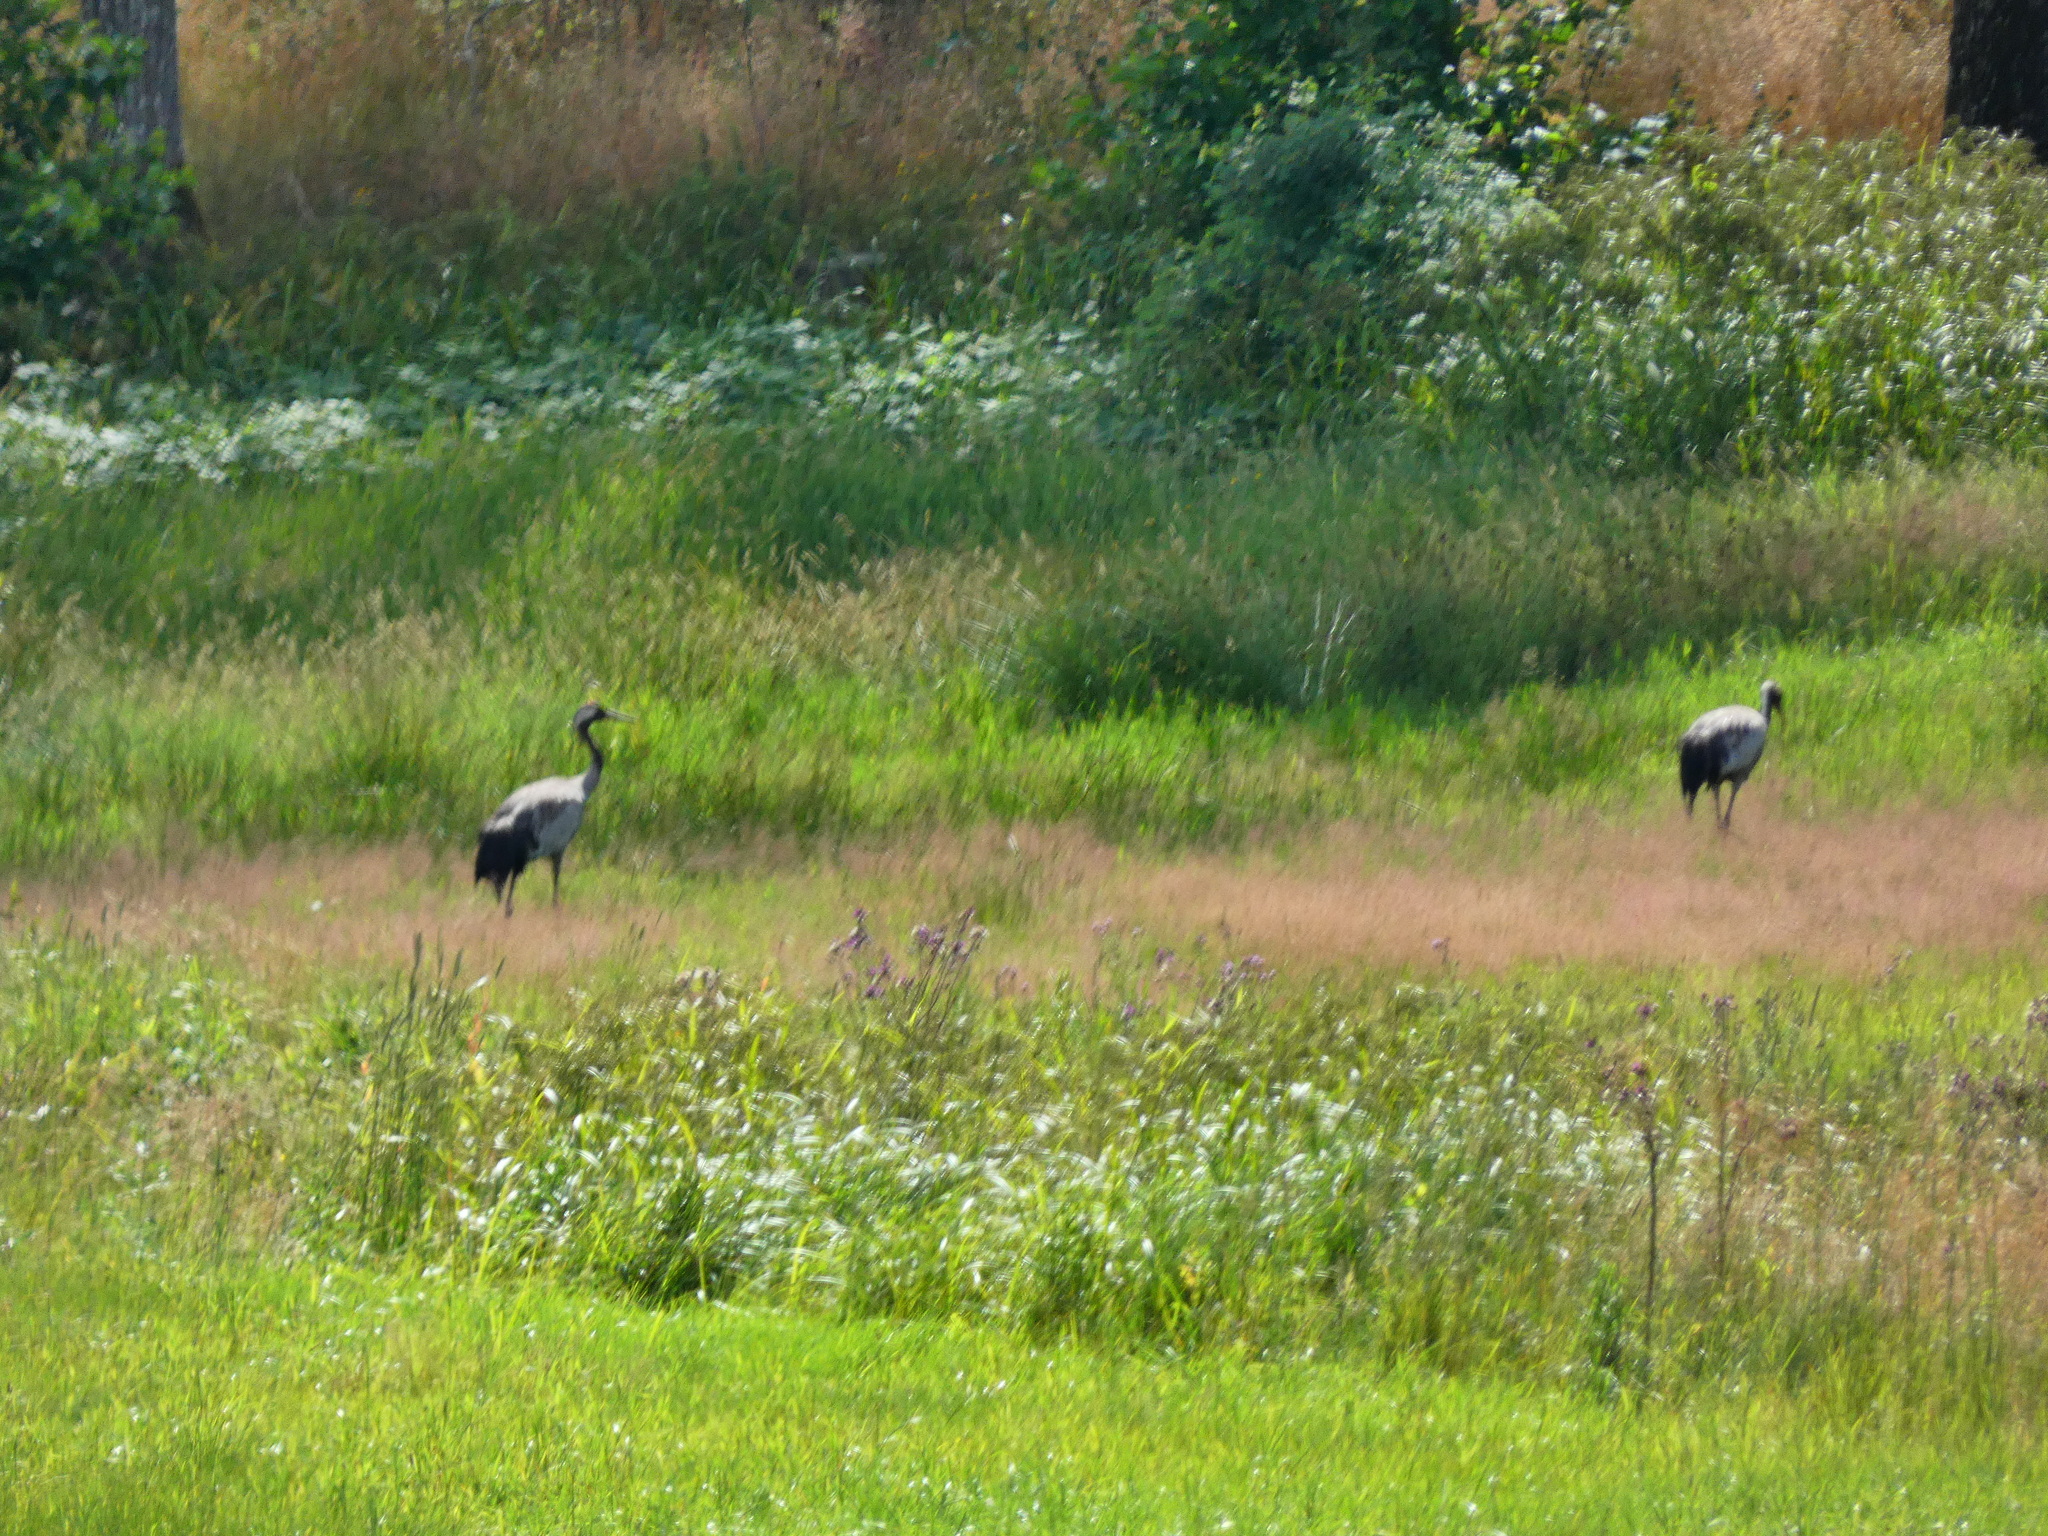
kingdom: Animalia
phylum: Chordata
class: Aves
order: Gruiformes
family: Gruidae
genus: Grus
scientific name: Grus grus
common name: Common crane
